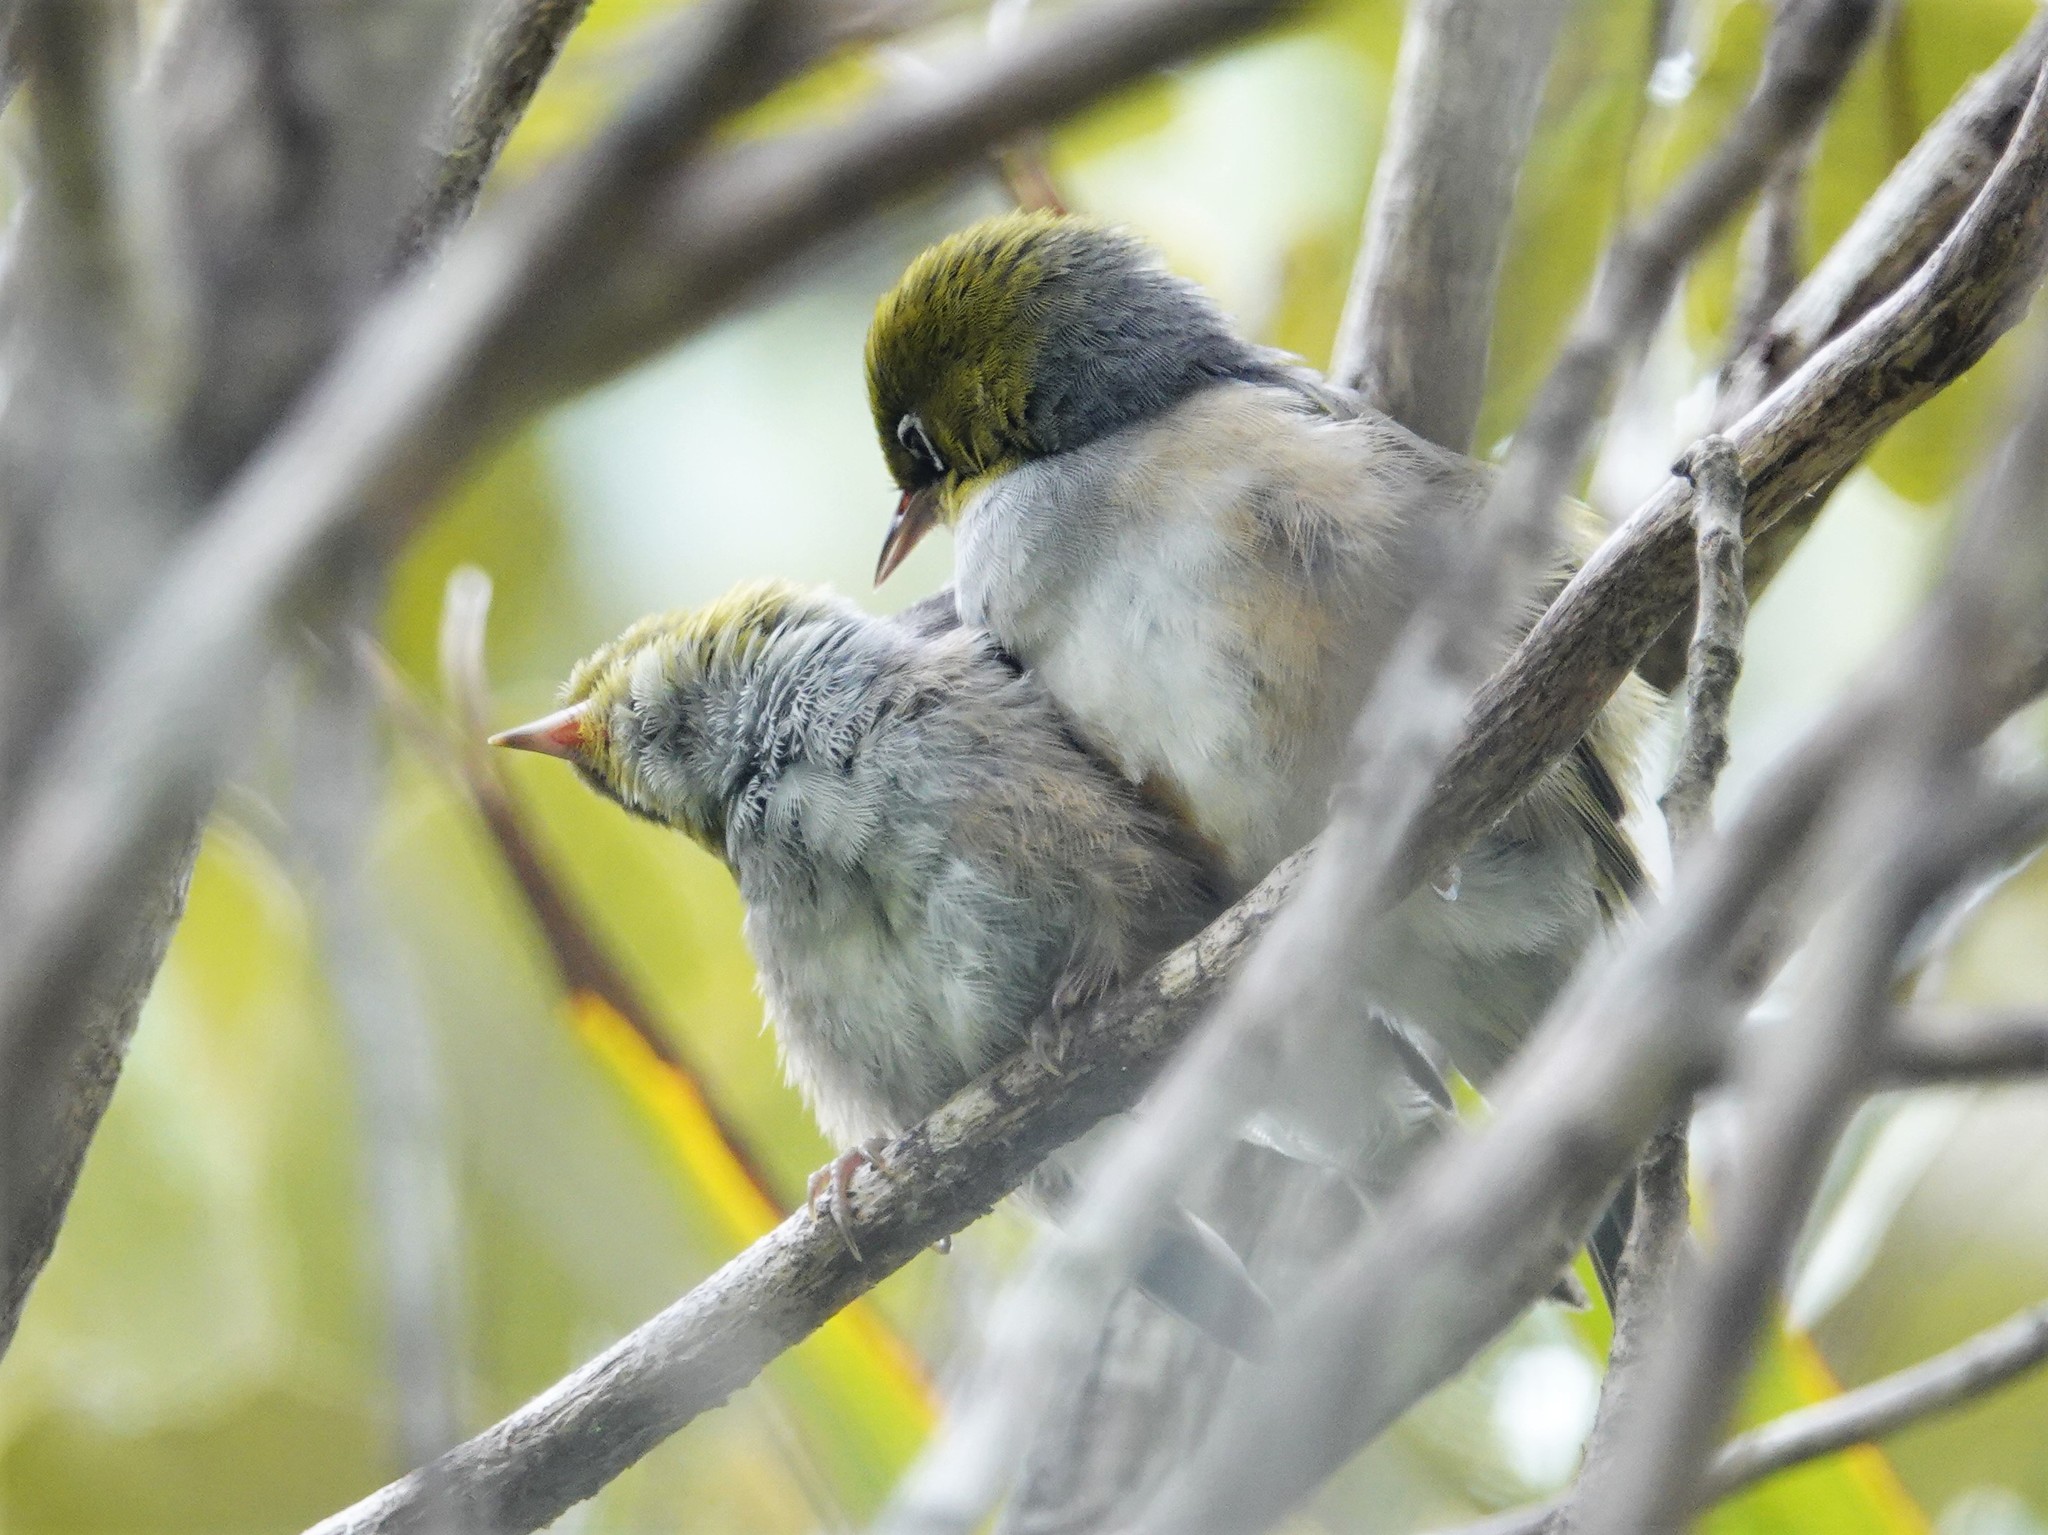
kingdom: Animalia
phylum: Chordata
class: Aves
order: Passeriformes
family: Zosteropidae
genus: Zosterops
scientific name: Zosterops lateralis
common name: Silvereye
